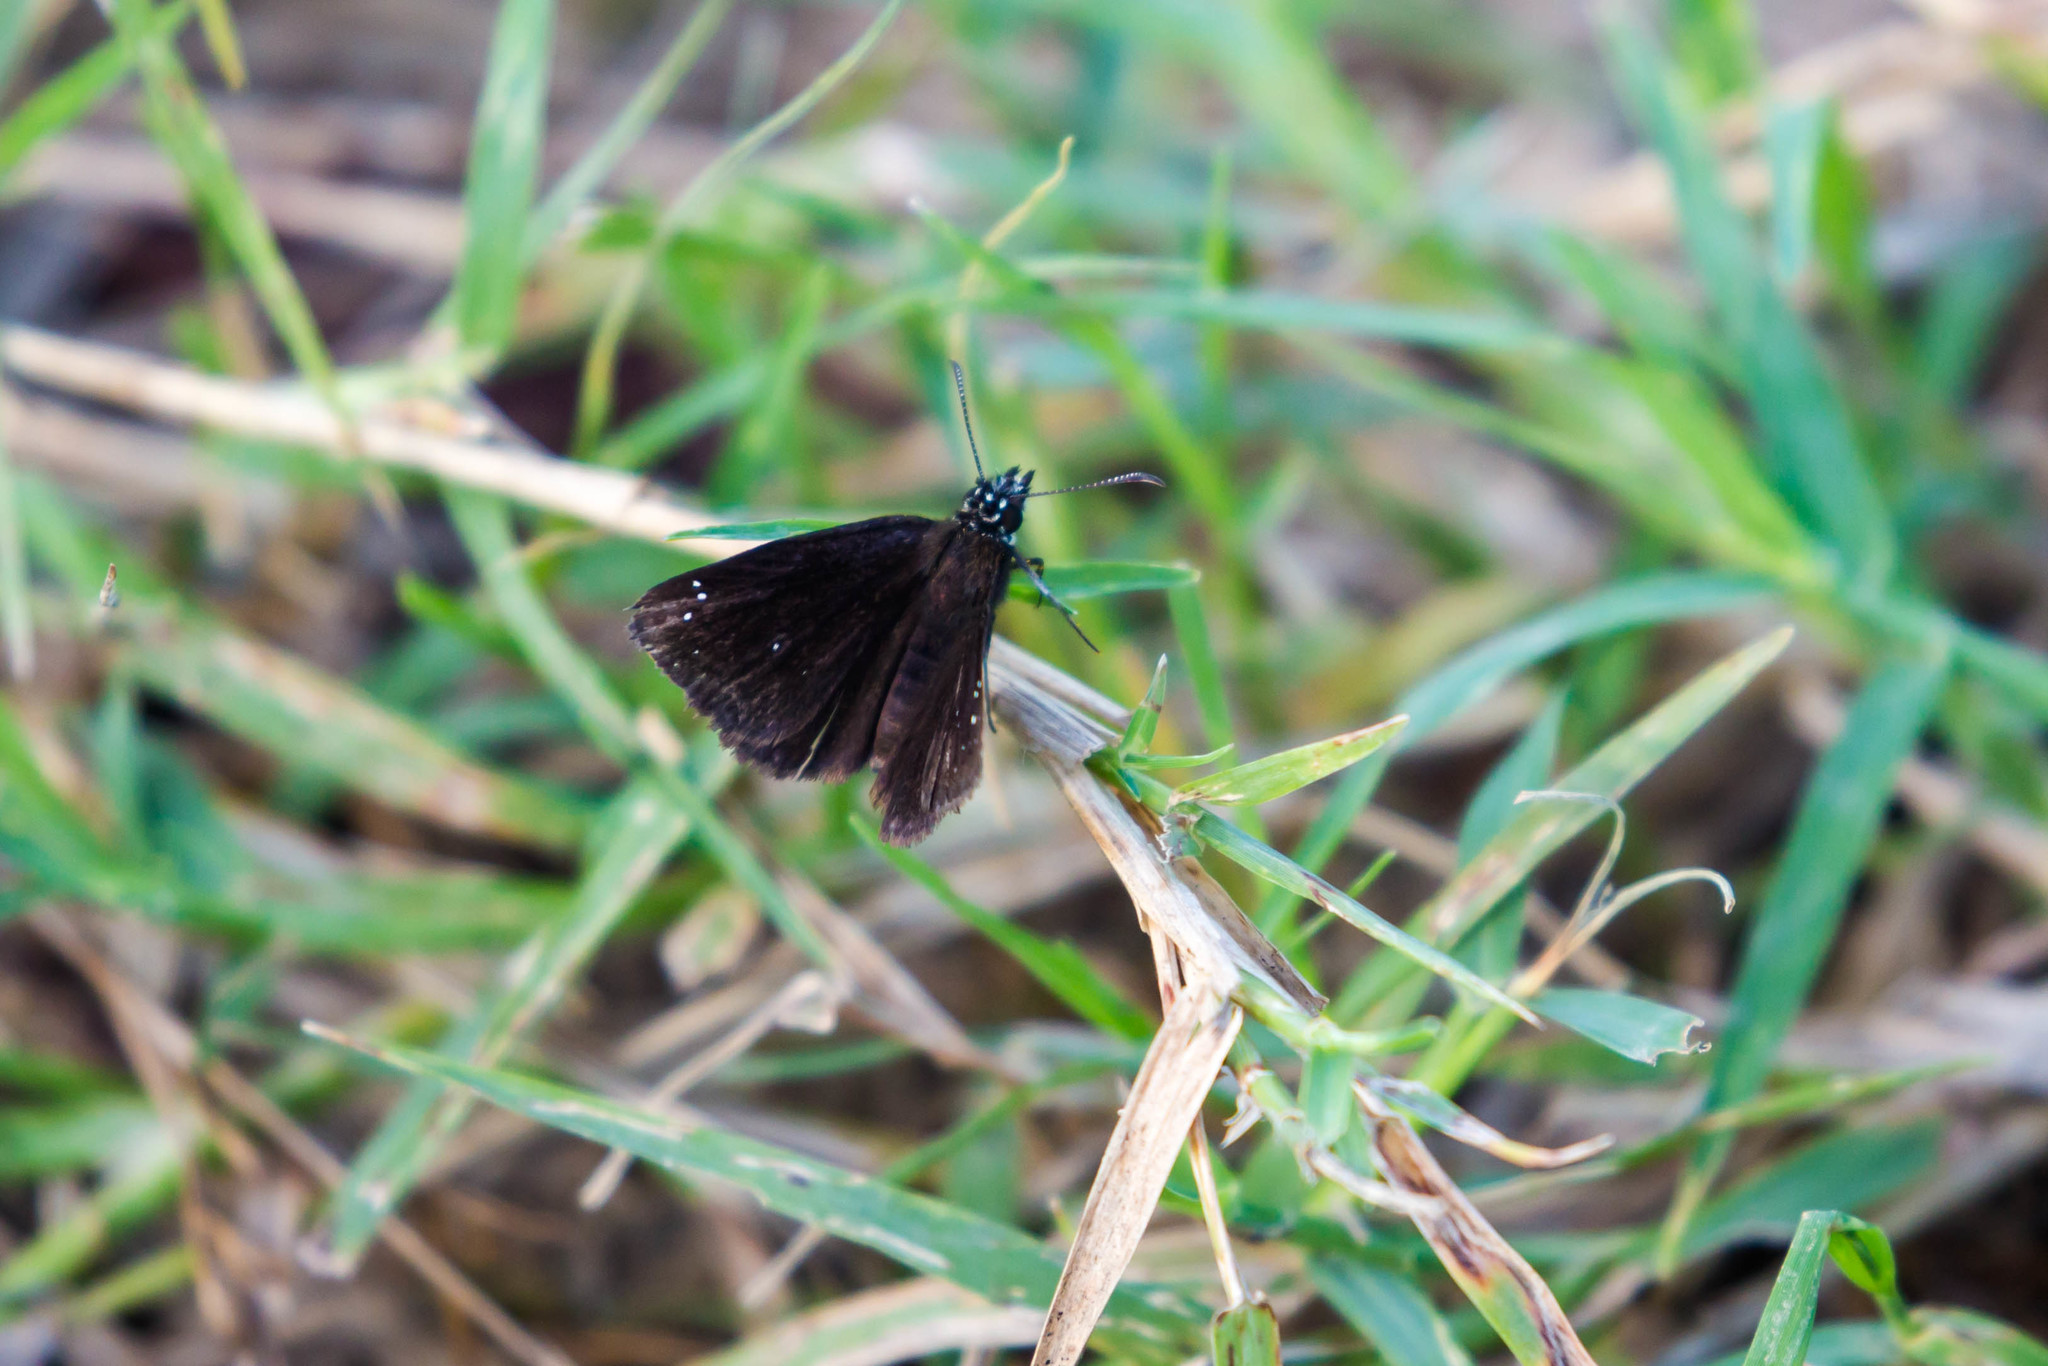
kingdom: Animalia
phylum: Arthropoda
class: Insecta
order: Lepidoptera
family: Hesperiidae
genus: Pholisora
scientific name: Pholisora catullus
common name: Common sootywing
